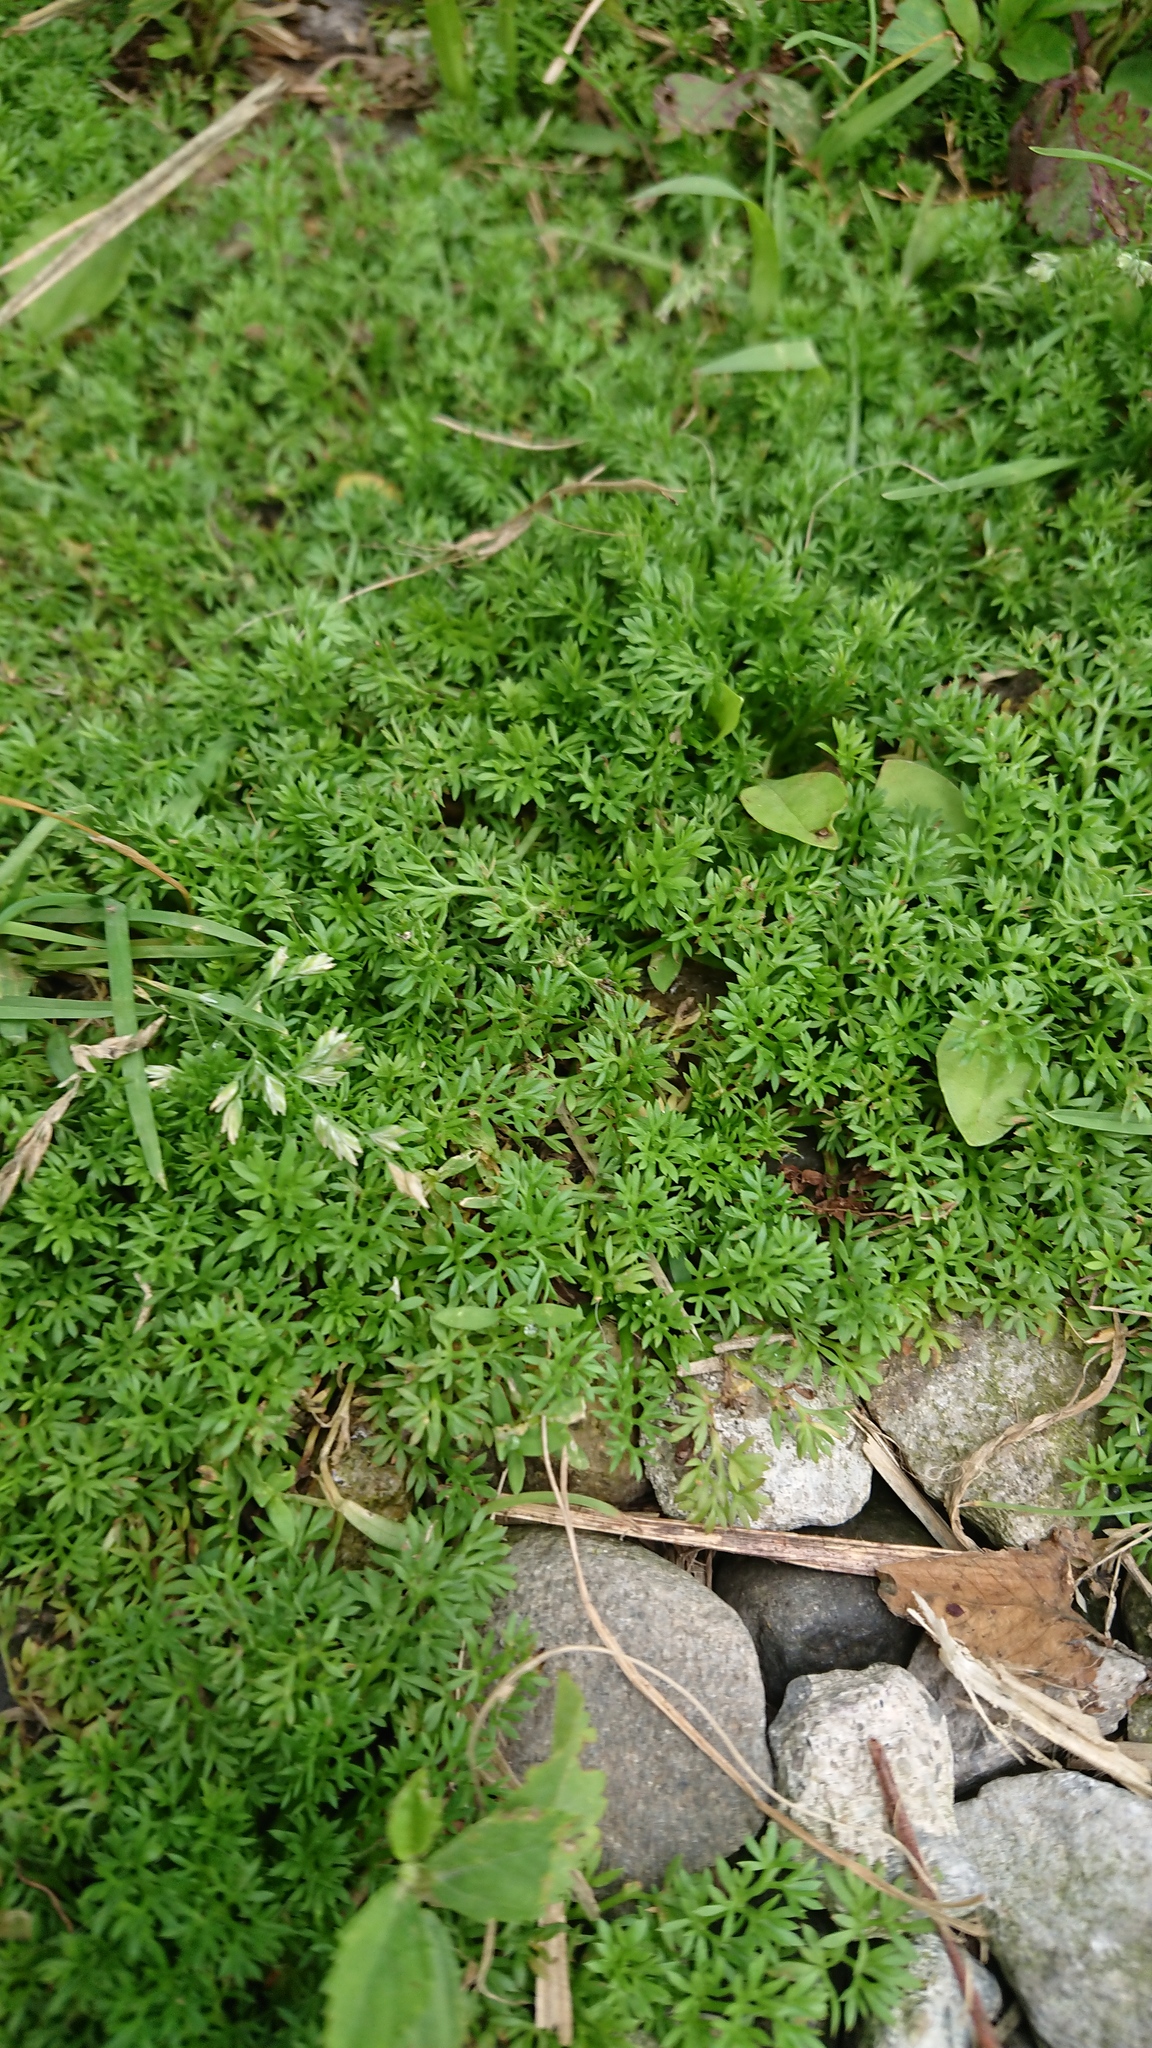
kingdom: Plantae
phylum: Tracheophyta
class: Magnoliopsida
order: Asterales
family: Asteraceae
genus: Soliva
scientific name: Soliva anthemifolia
